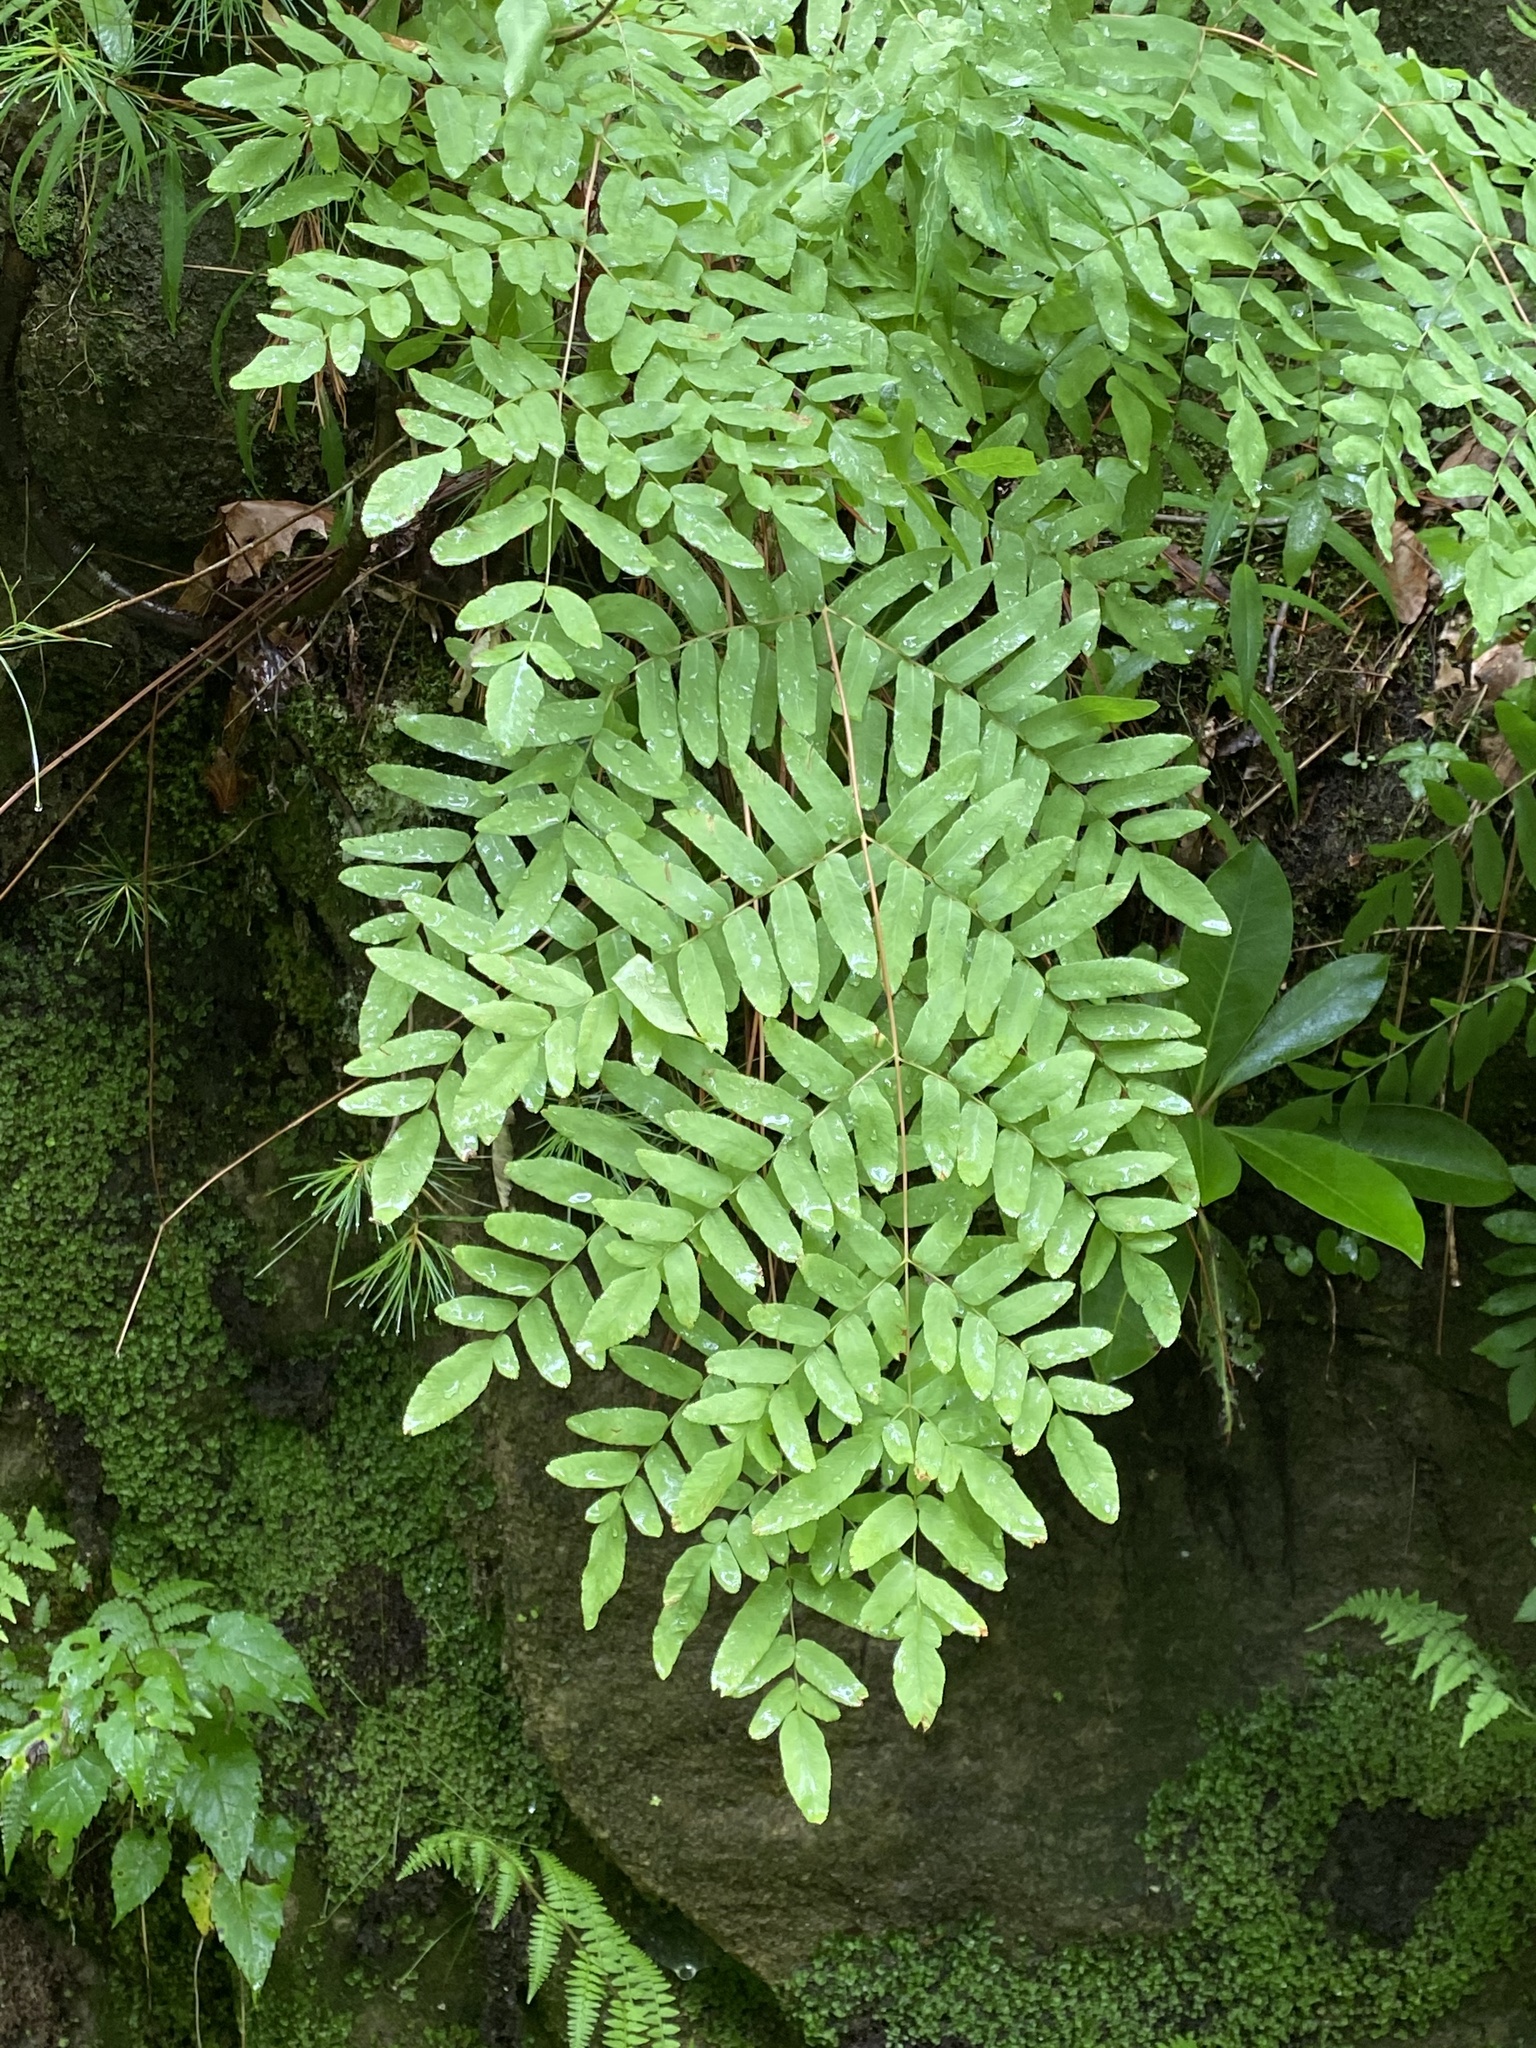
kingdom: Plantae
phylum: Tracheophyta
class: Polypodiopsida
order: Osmundales
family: Osmundaceae
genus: Osmunda
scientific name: Osmunda spectabilis
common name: American royal fern
